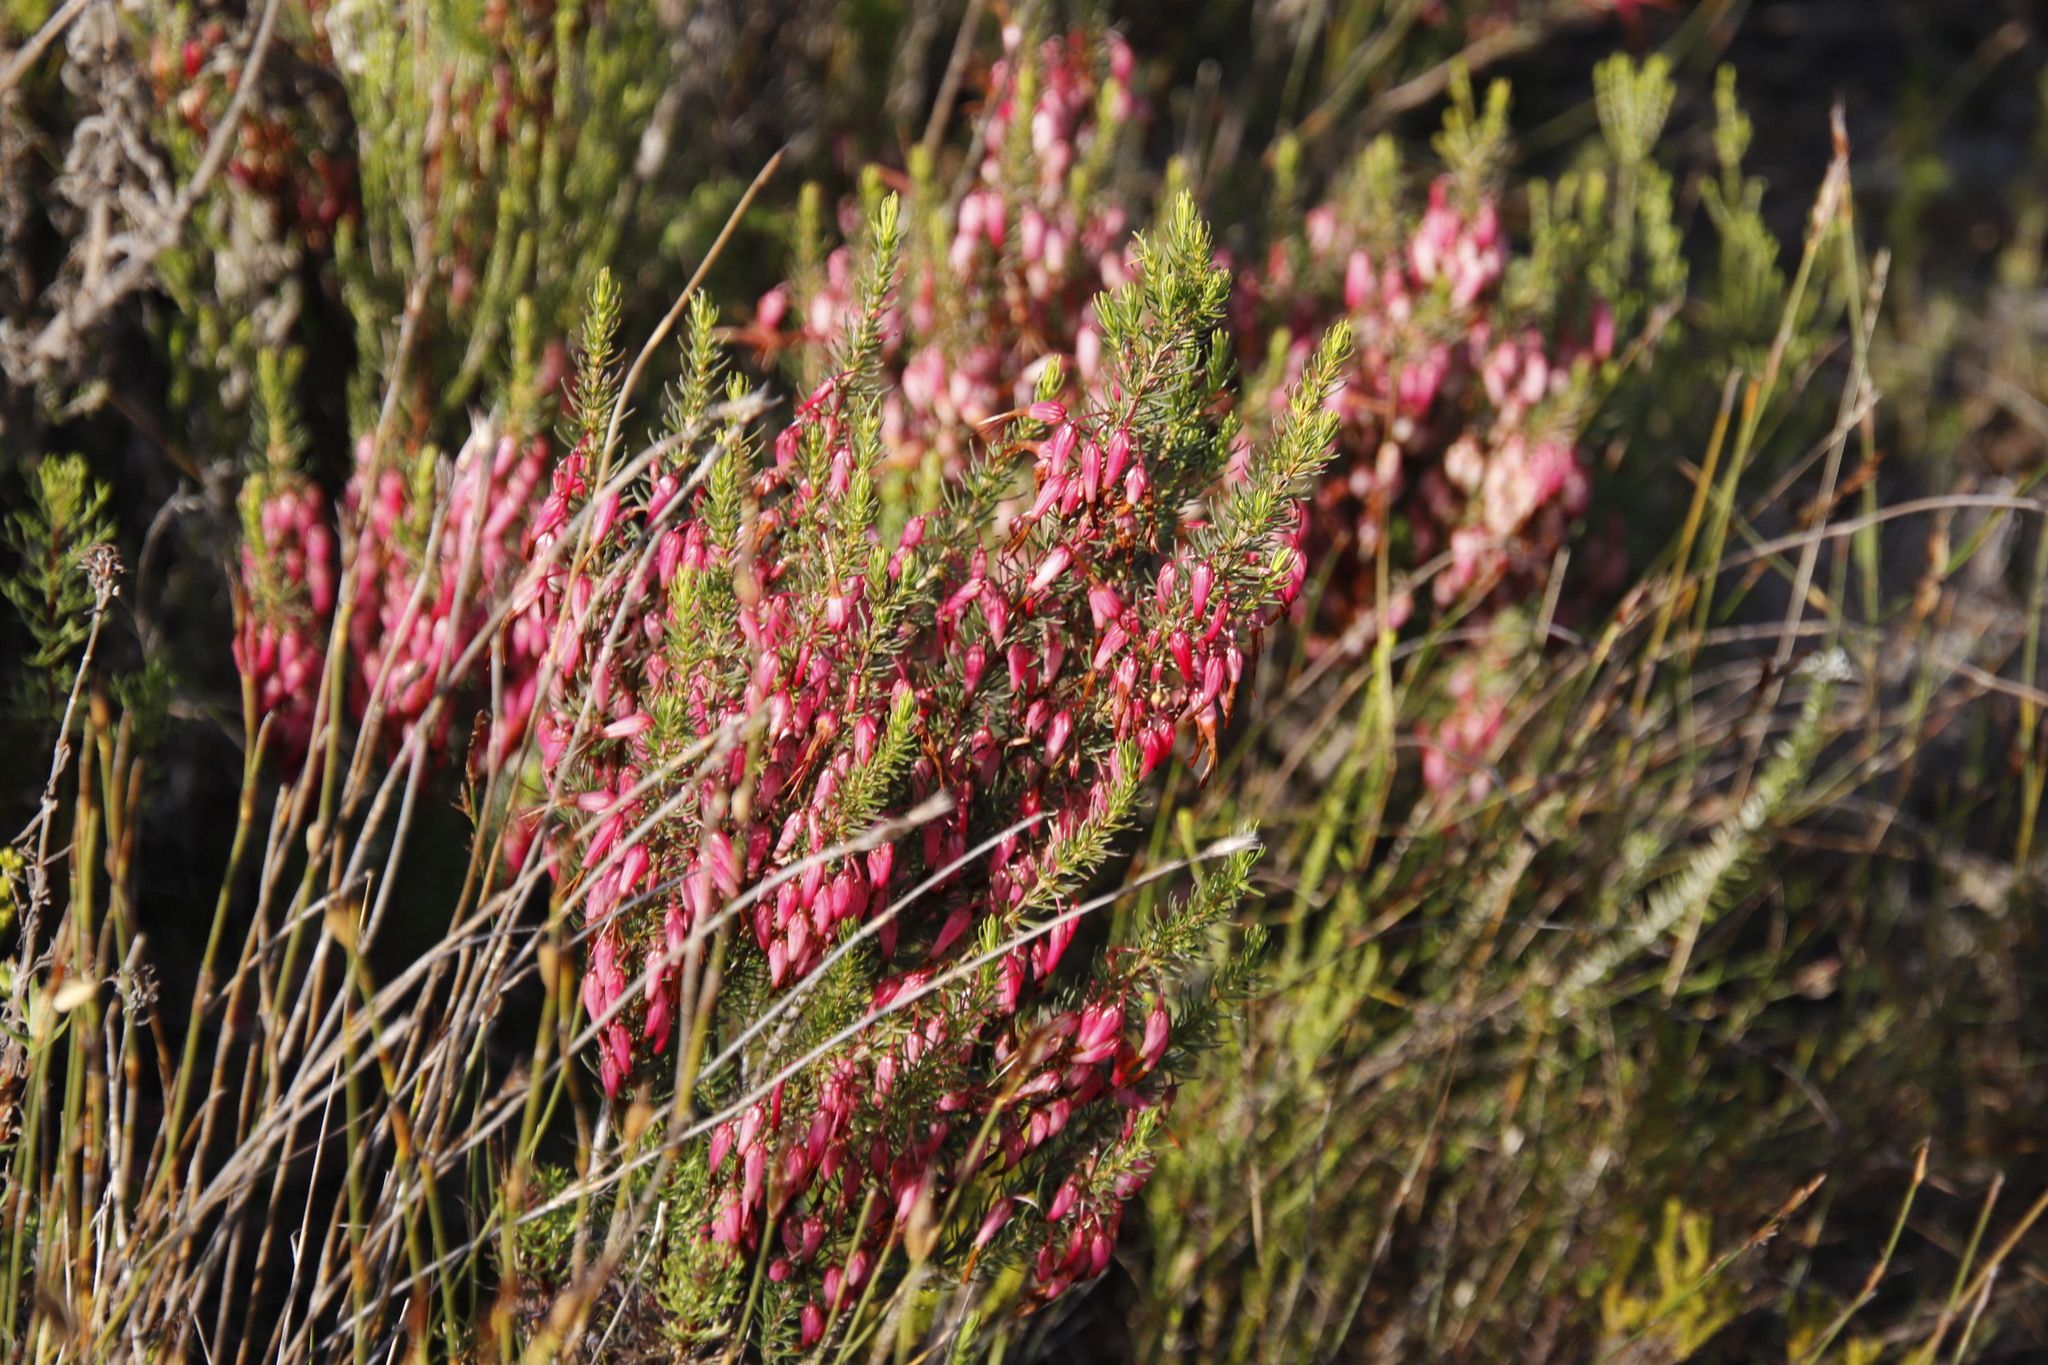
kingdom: Plantae
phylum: Tracheophyta
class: Magnoliopsida
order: Ericales
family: Ericaceae
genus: Erica
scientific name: Erica plukenetii
